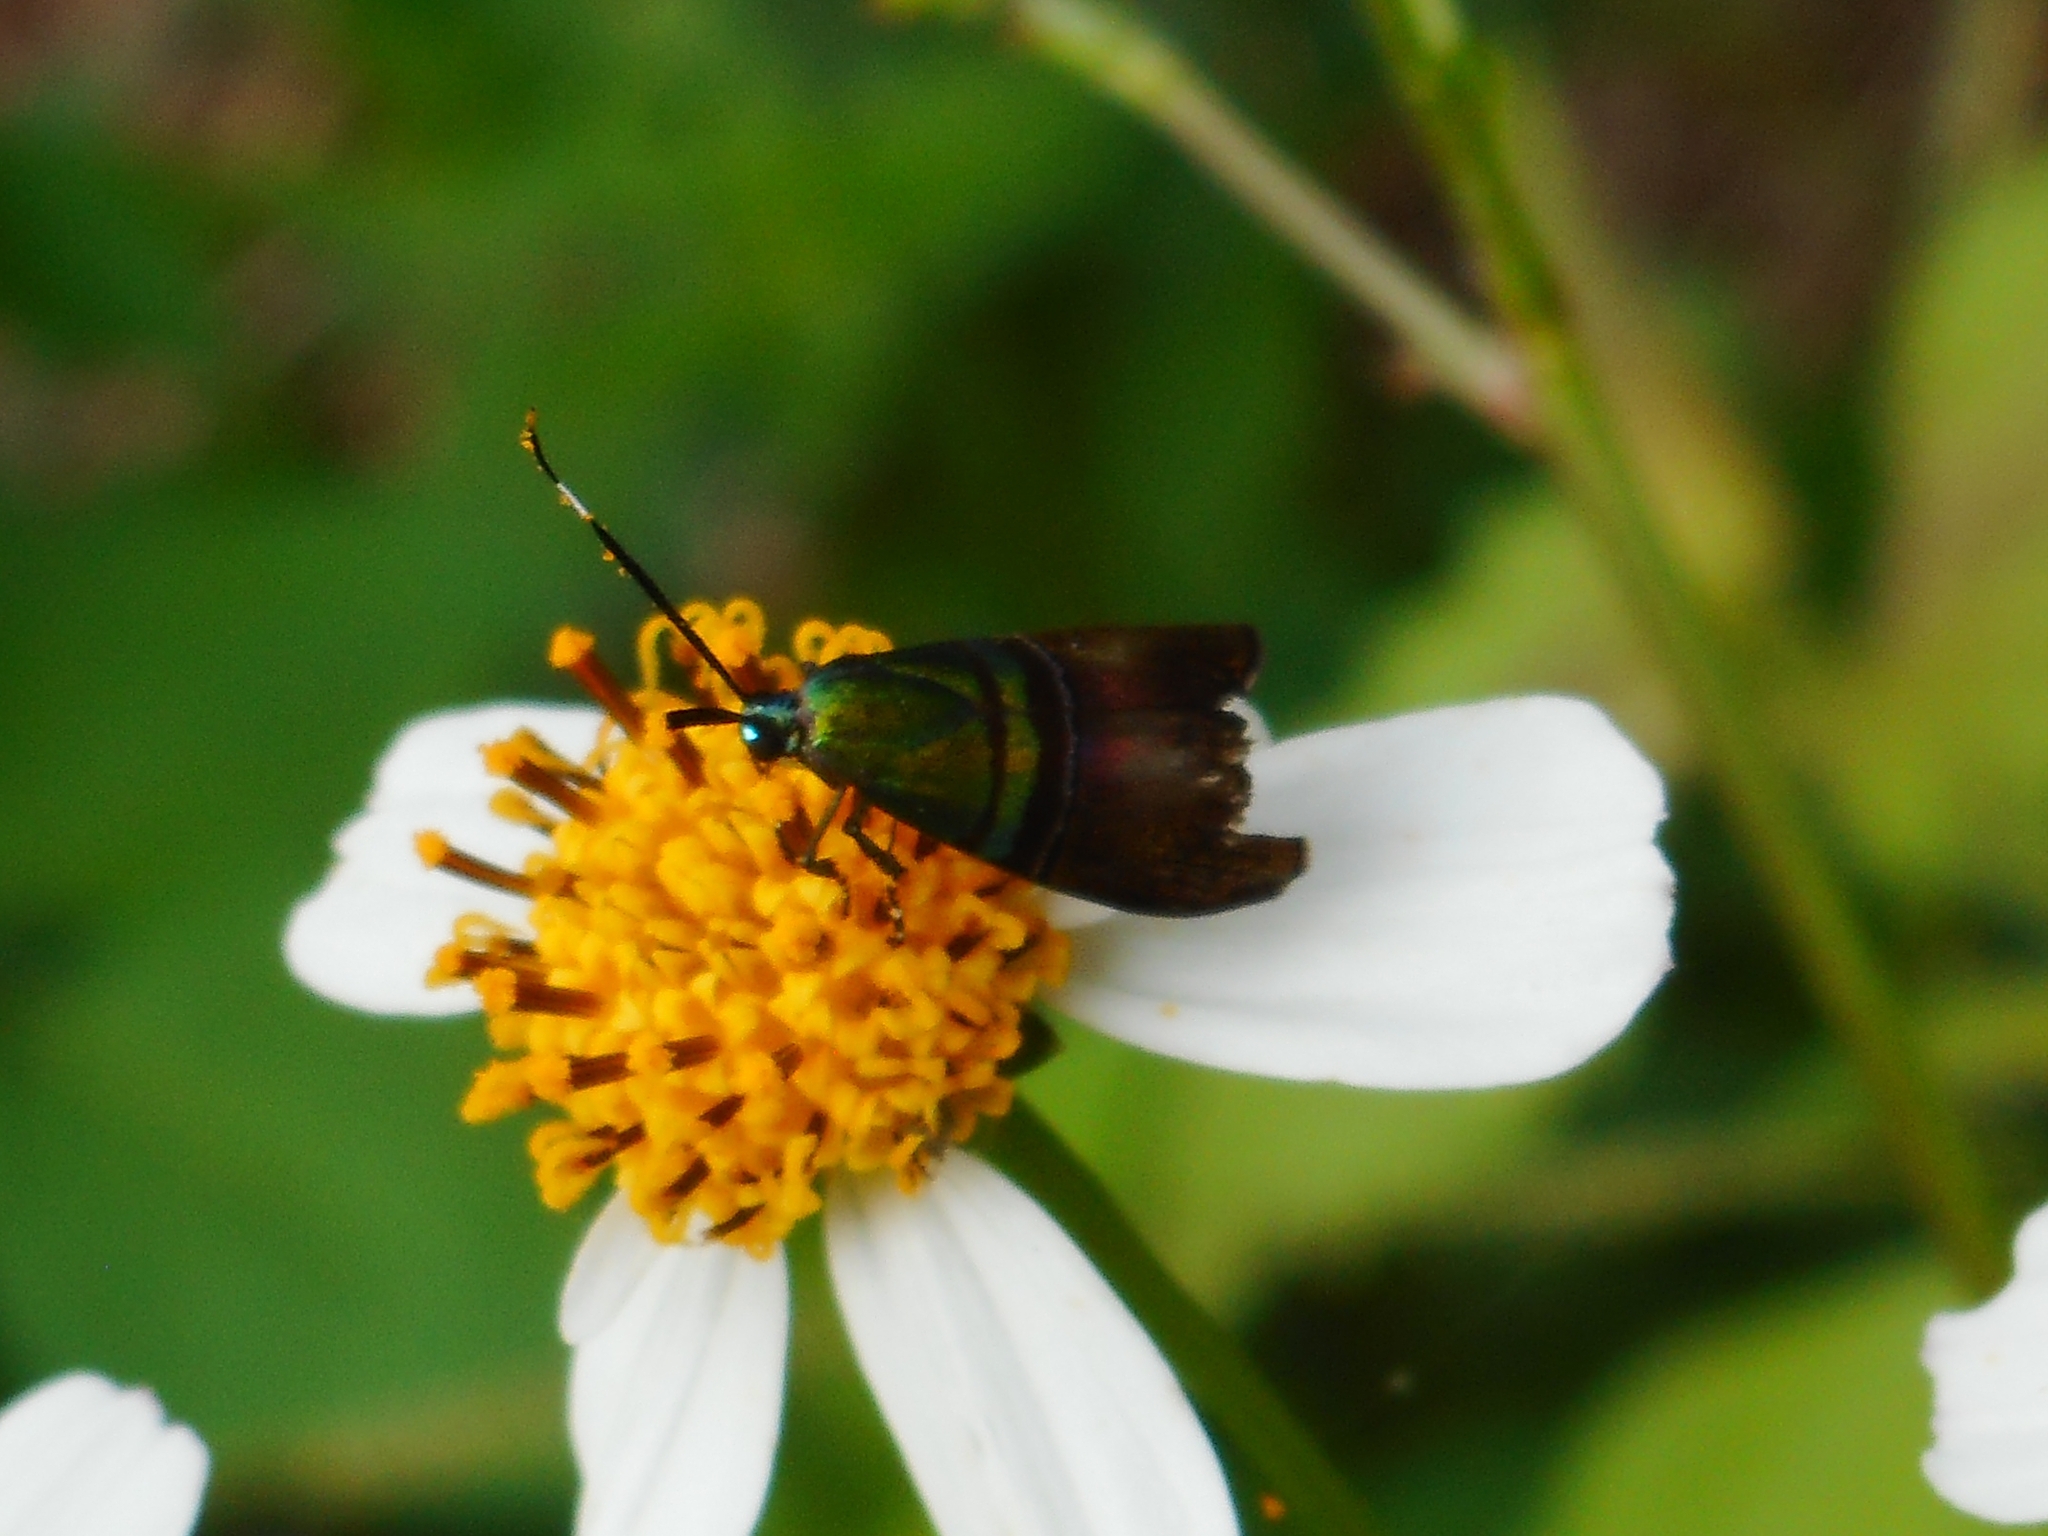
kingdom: Animalia
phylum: Arthropoda
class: Insecta
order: Lepidoptera
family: Choreutidae
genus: Saptha
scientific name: Saptha pretiosa
